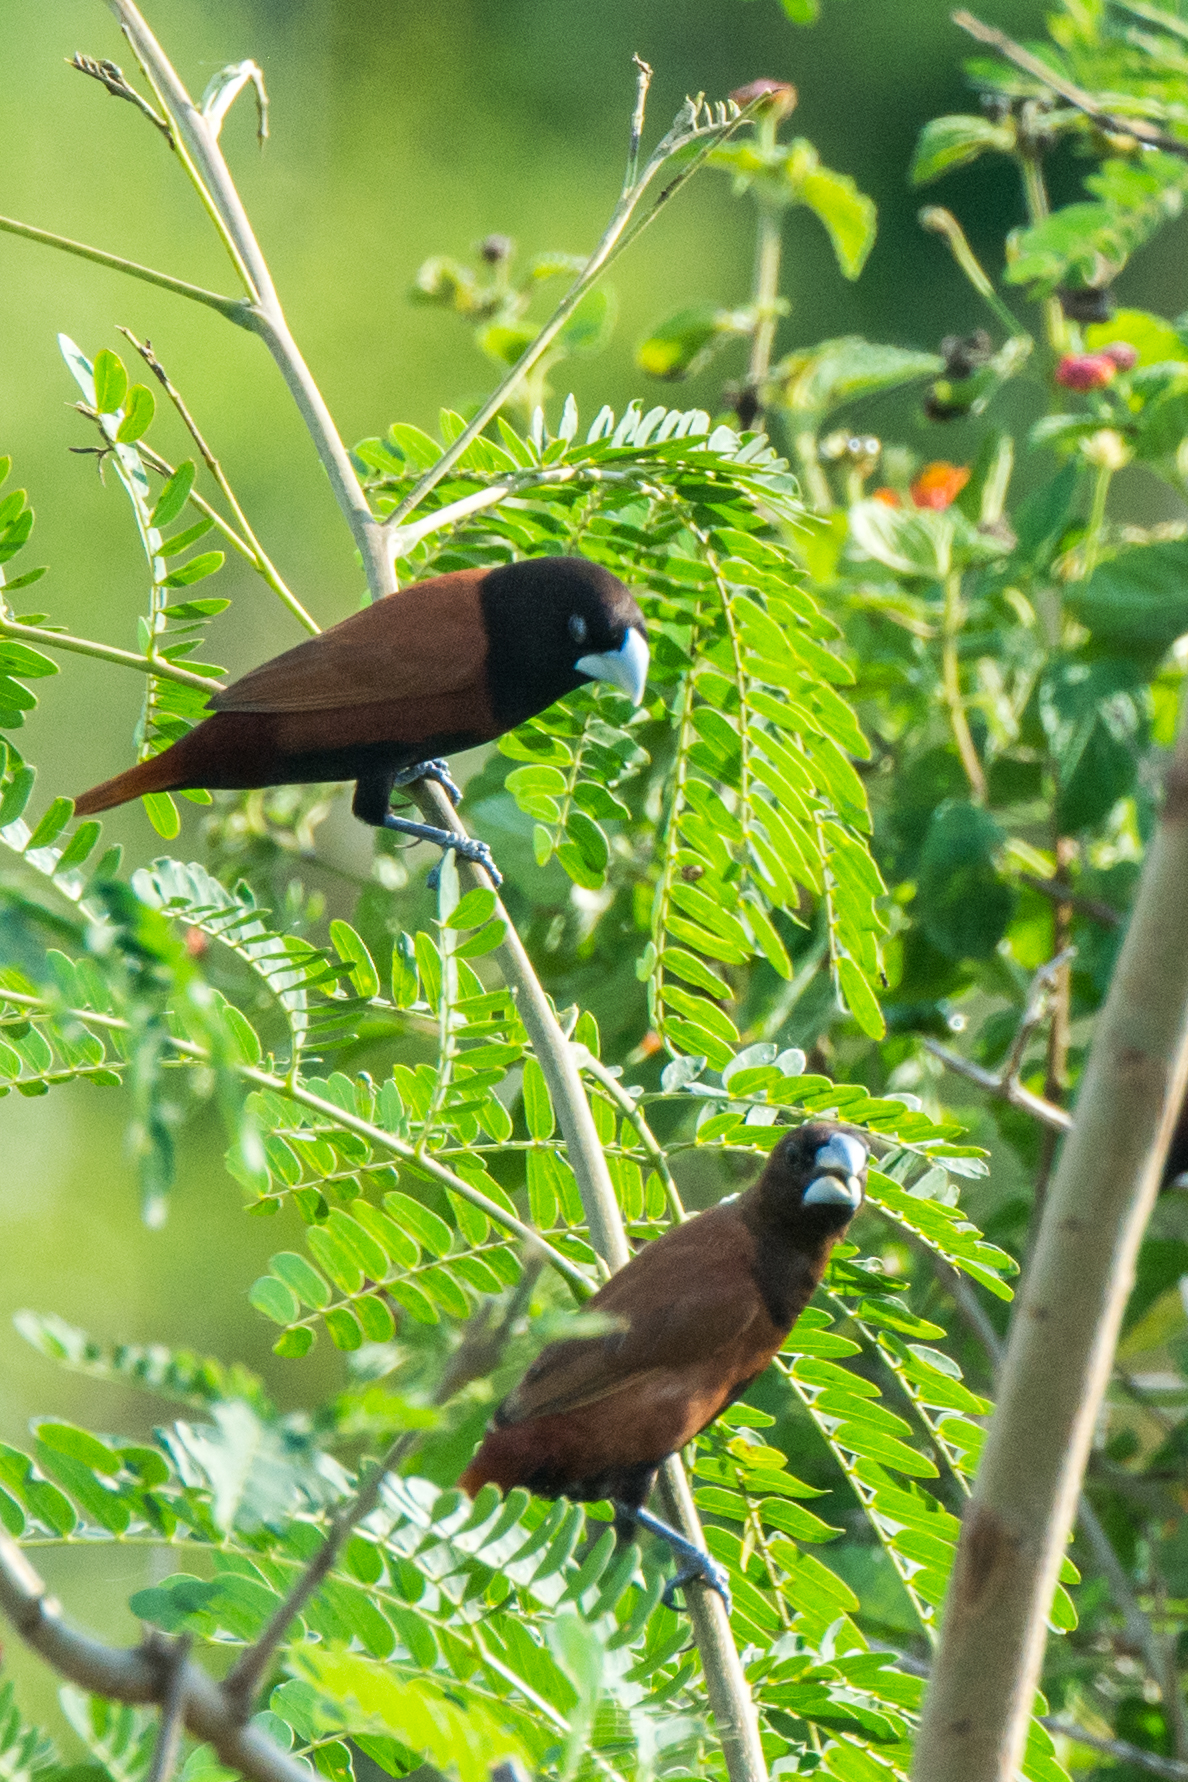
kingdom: Animalia
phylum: Chordata
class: Aves
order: Passeriformes
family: Estrildidae
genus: Lonchura
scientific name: Lonchura atricapilla
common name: Chestnut munia
